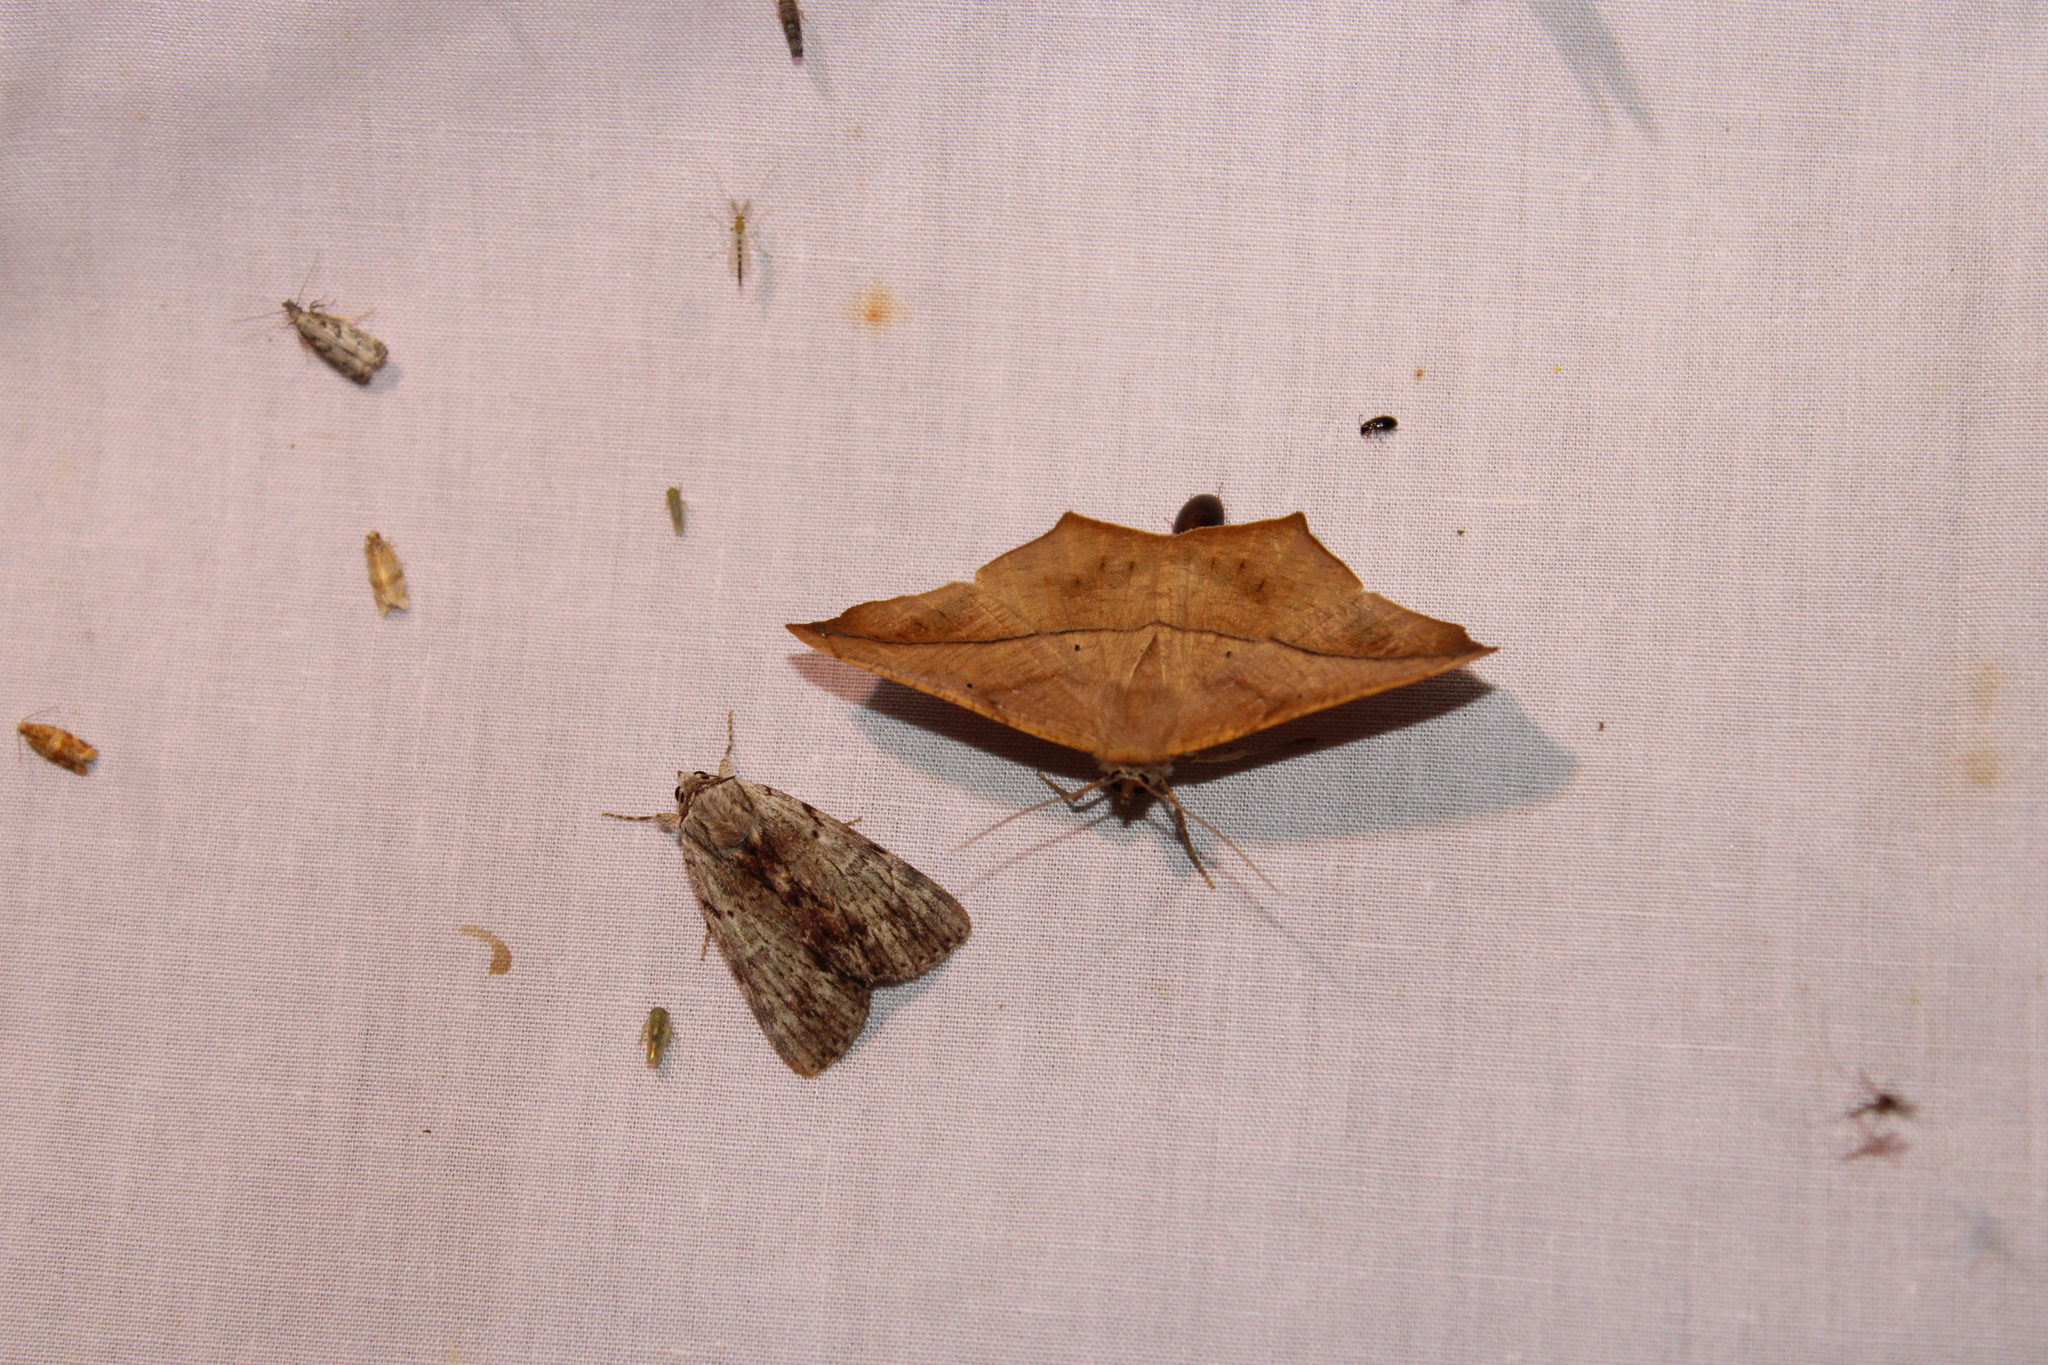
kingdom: Animalia
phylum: Arthropoda
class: Insecta
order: Lepidoptera
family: Geometridae
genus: Prochoerodes
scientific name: Prochoerodes lineola
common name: Large maple spanworm
